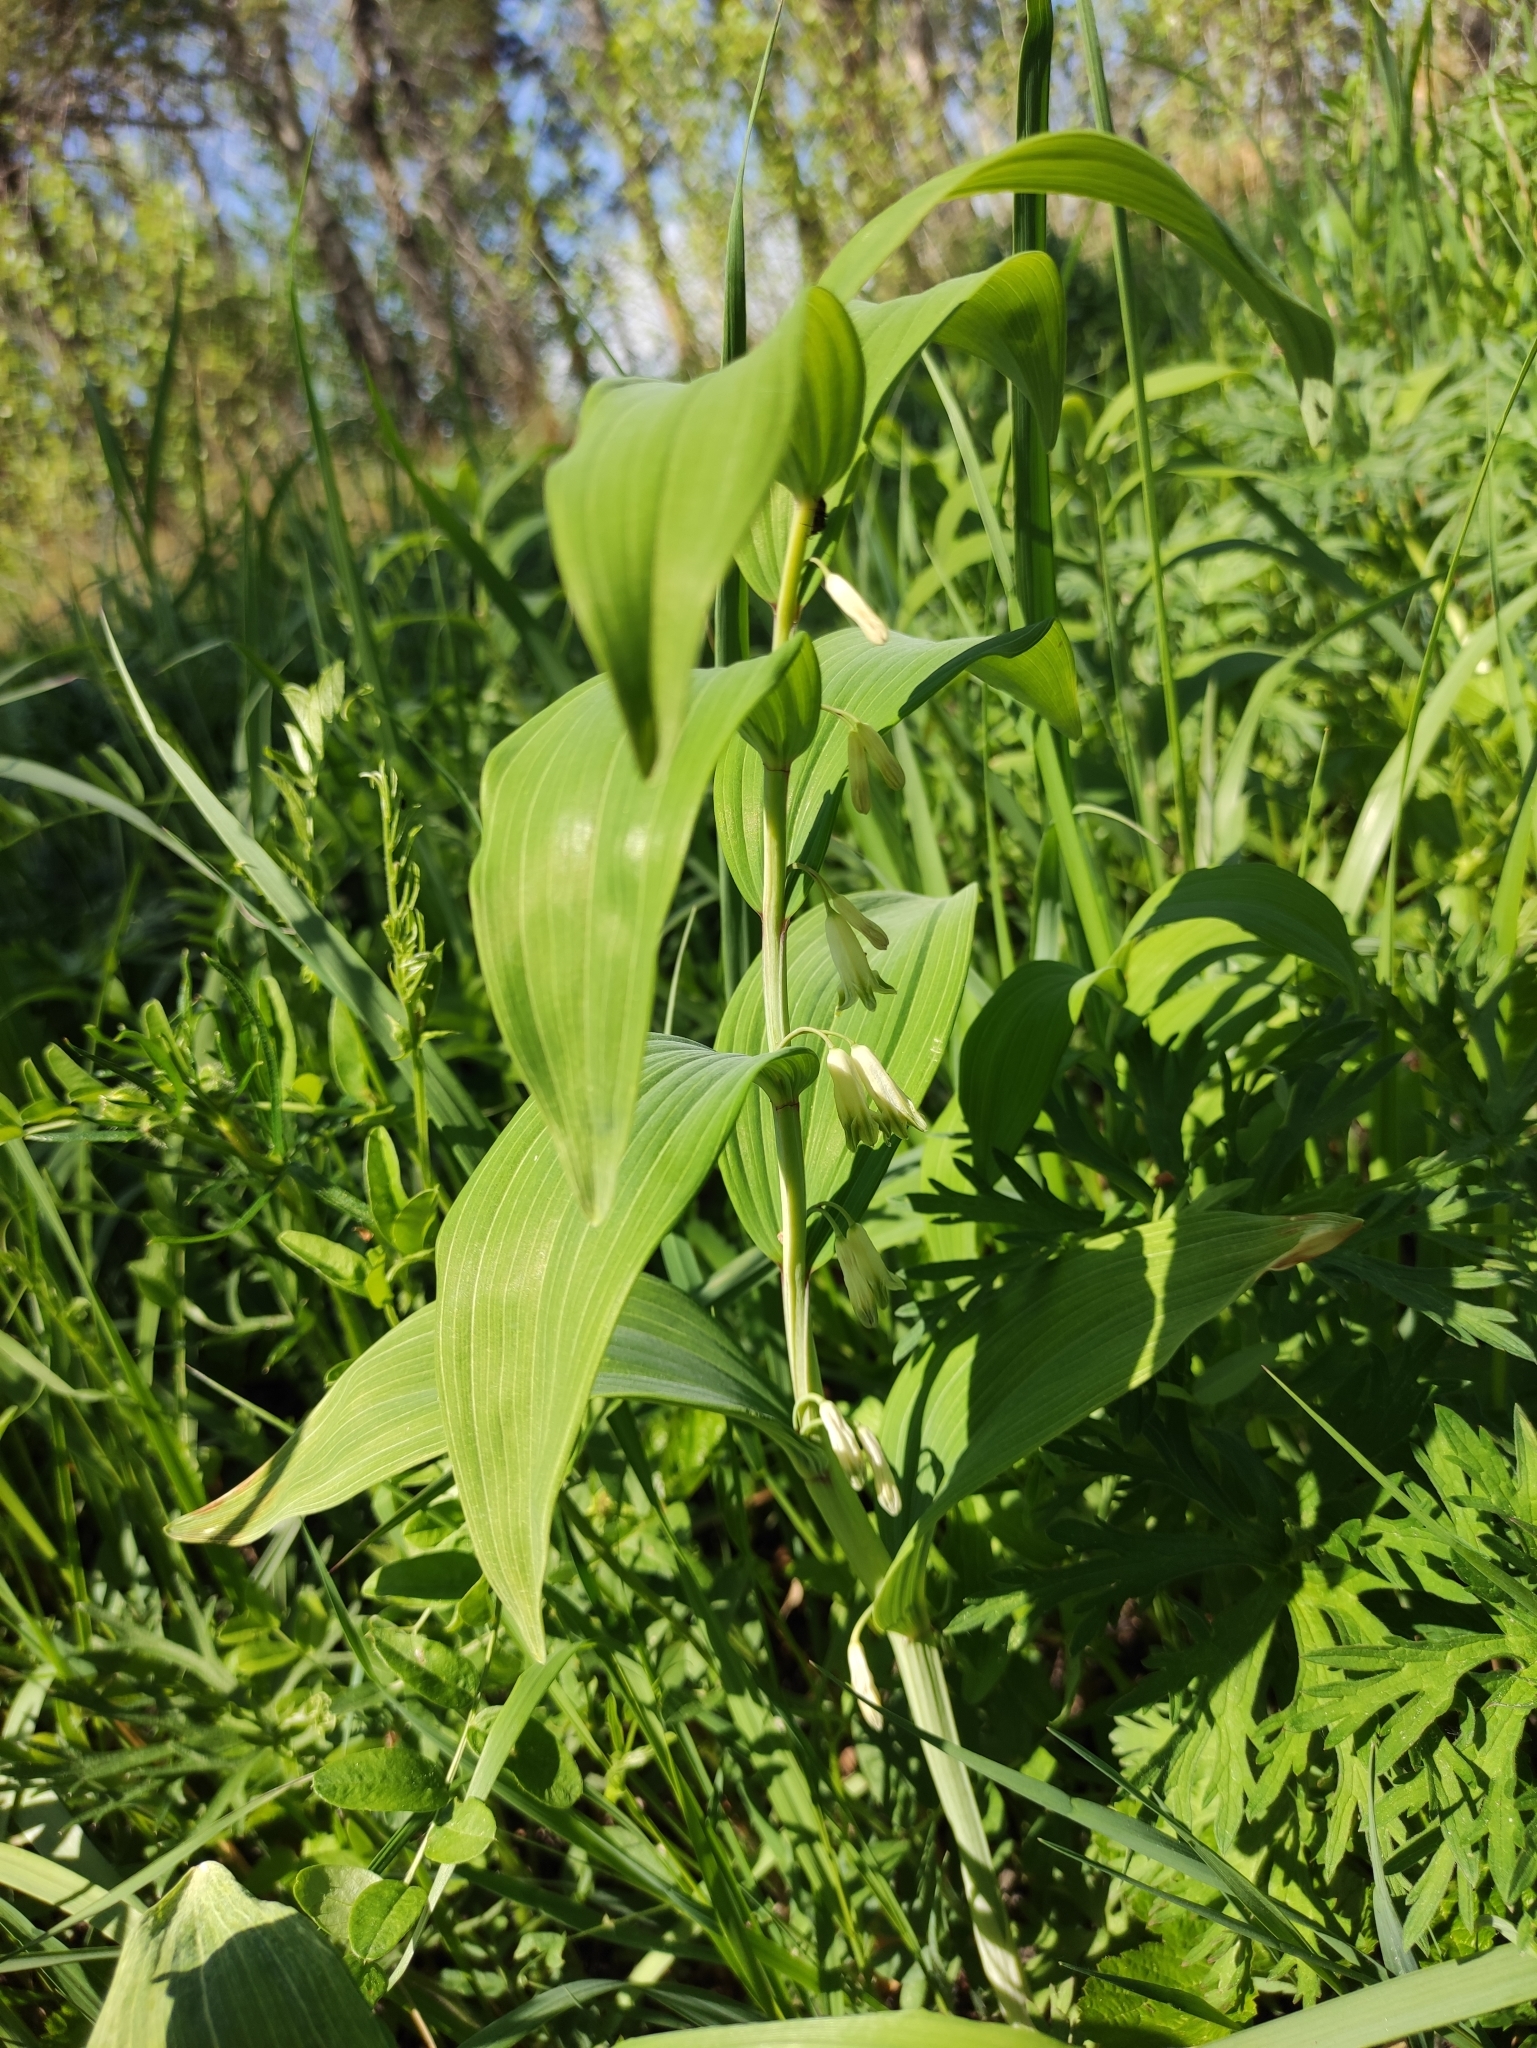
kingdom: Plantae
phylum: Tracheophyta
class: Liliopsida
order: Asparagales
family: Asparagaceae
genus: Polygonatum
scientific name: Polygonatum odoratum
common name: Angular solomon's-seal
